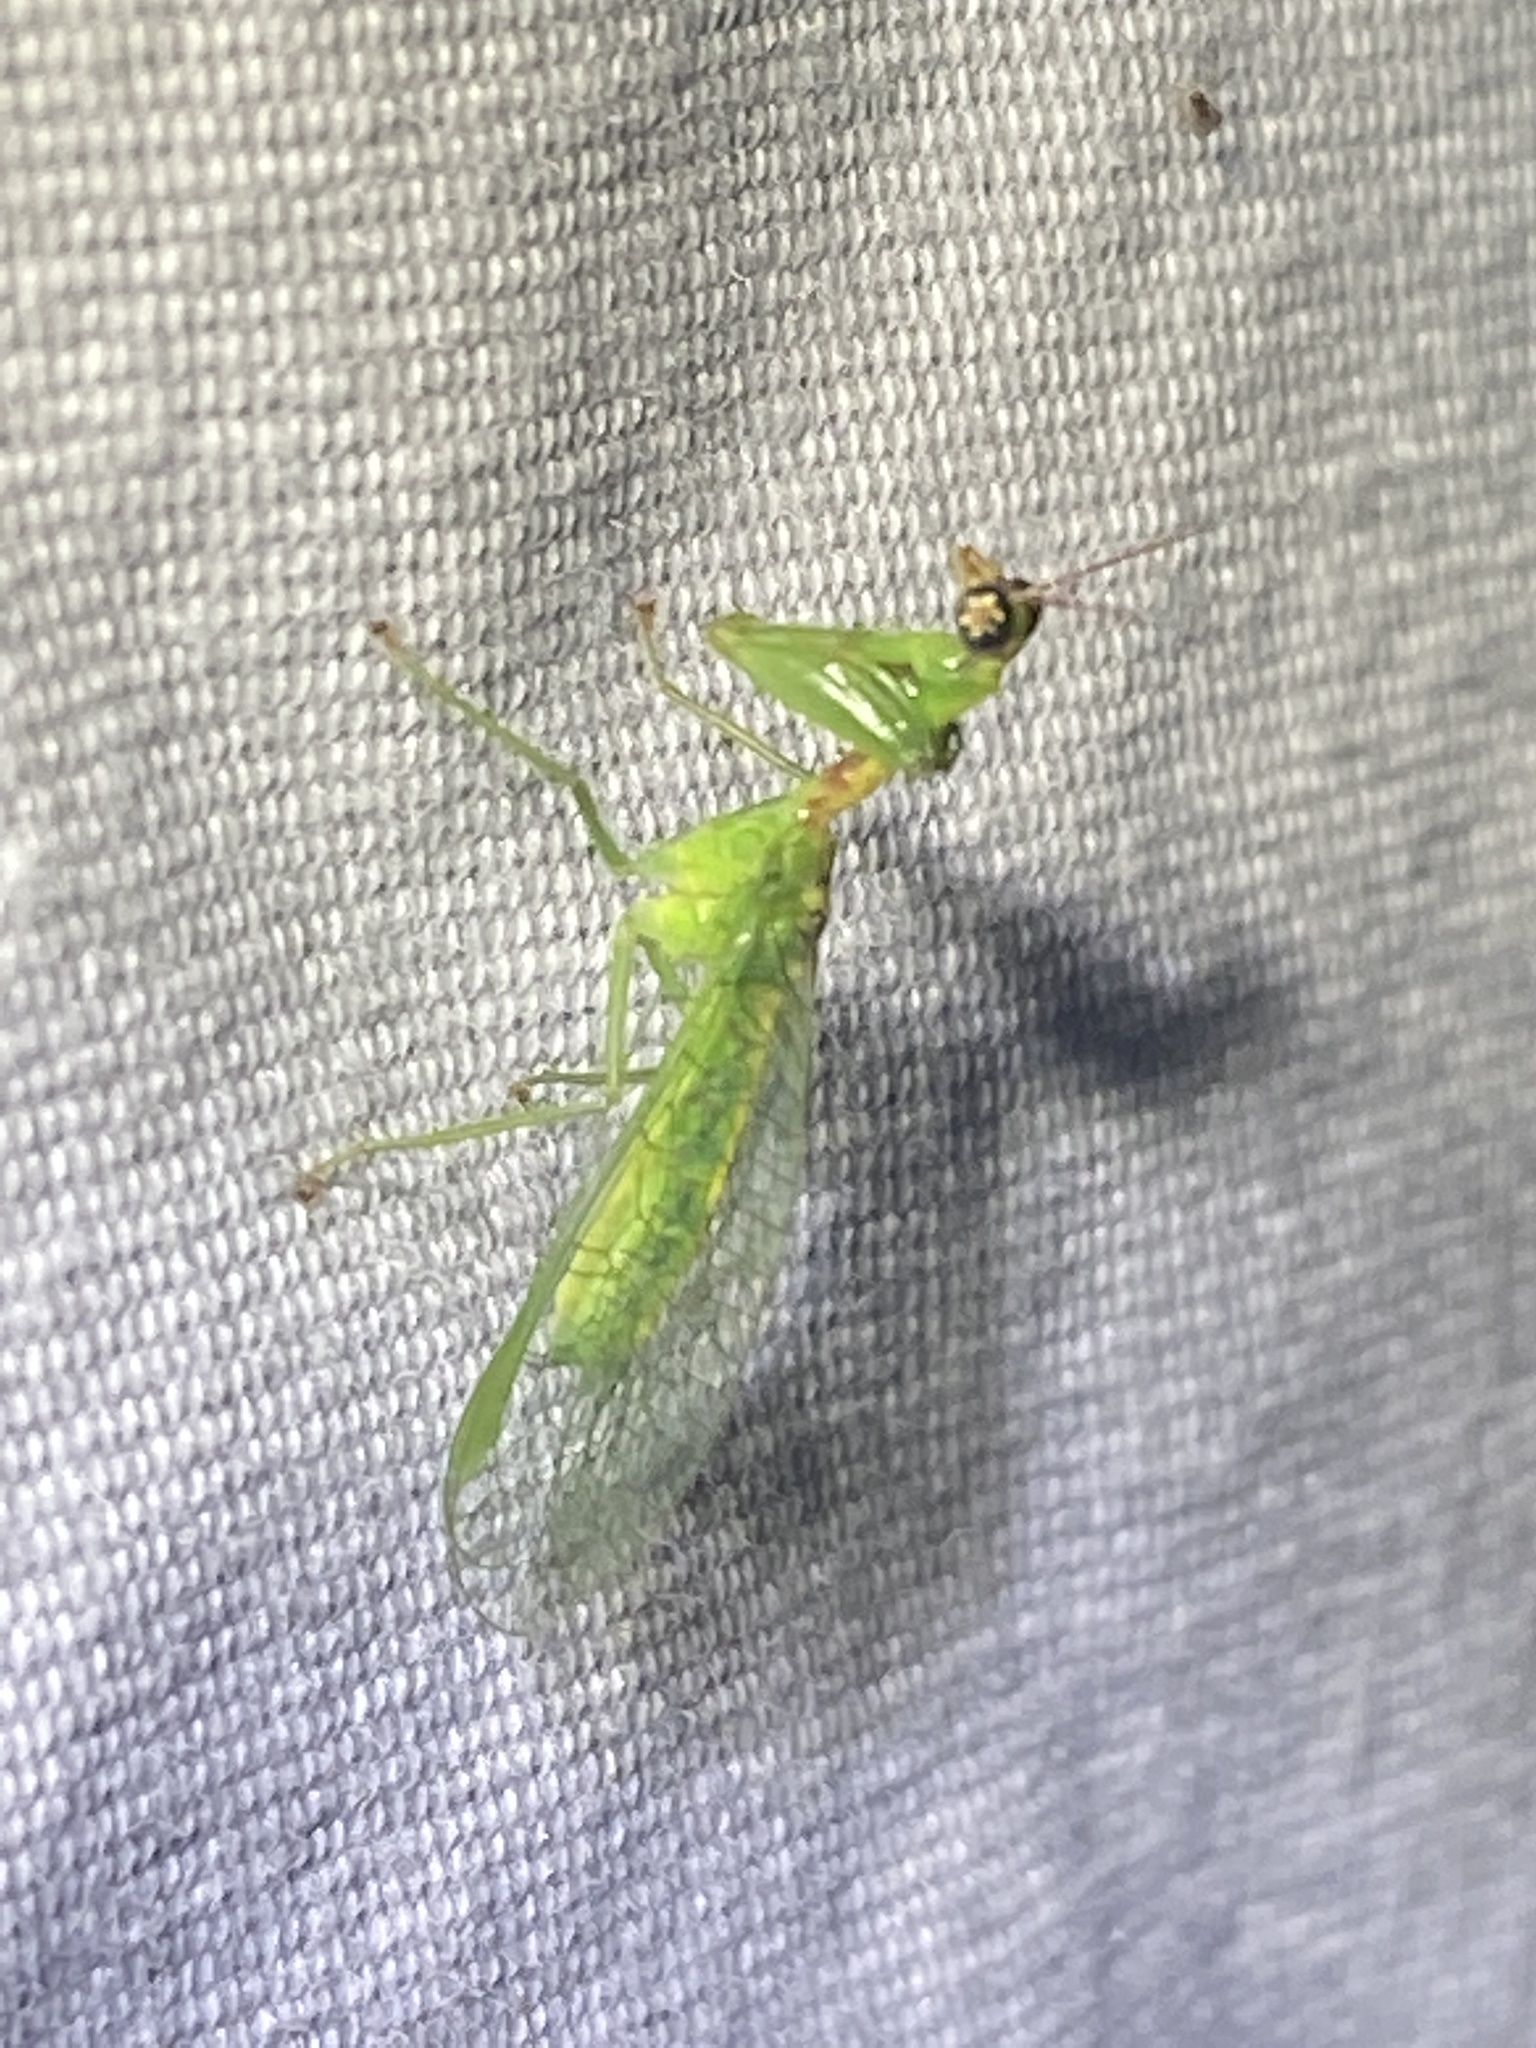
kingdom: Animalia
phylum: Arthropoda
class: Insecta
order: Neuroptera
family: Mantispidae
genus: Zeugomantispa
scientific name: Zeugomantispa minuta
